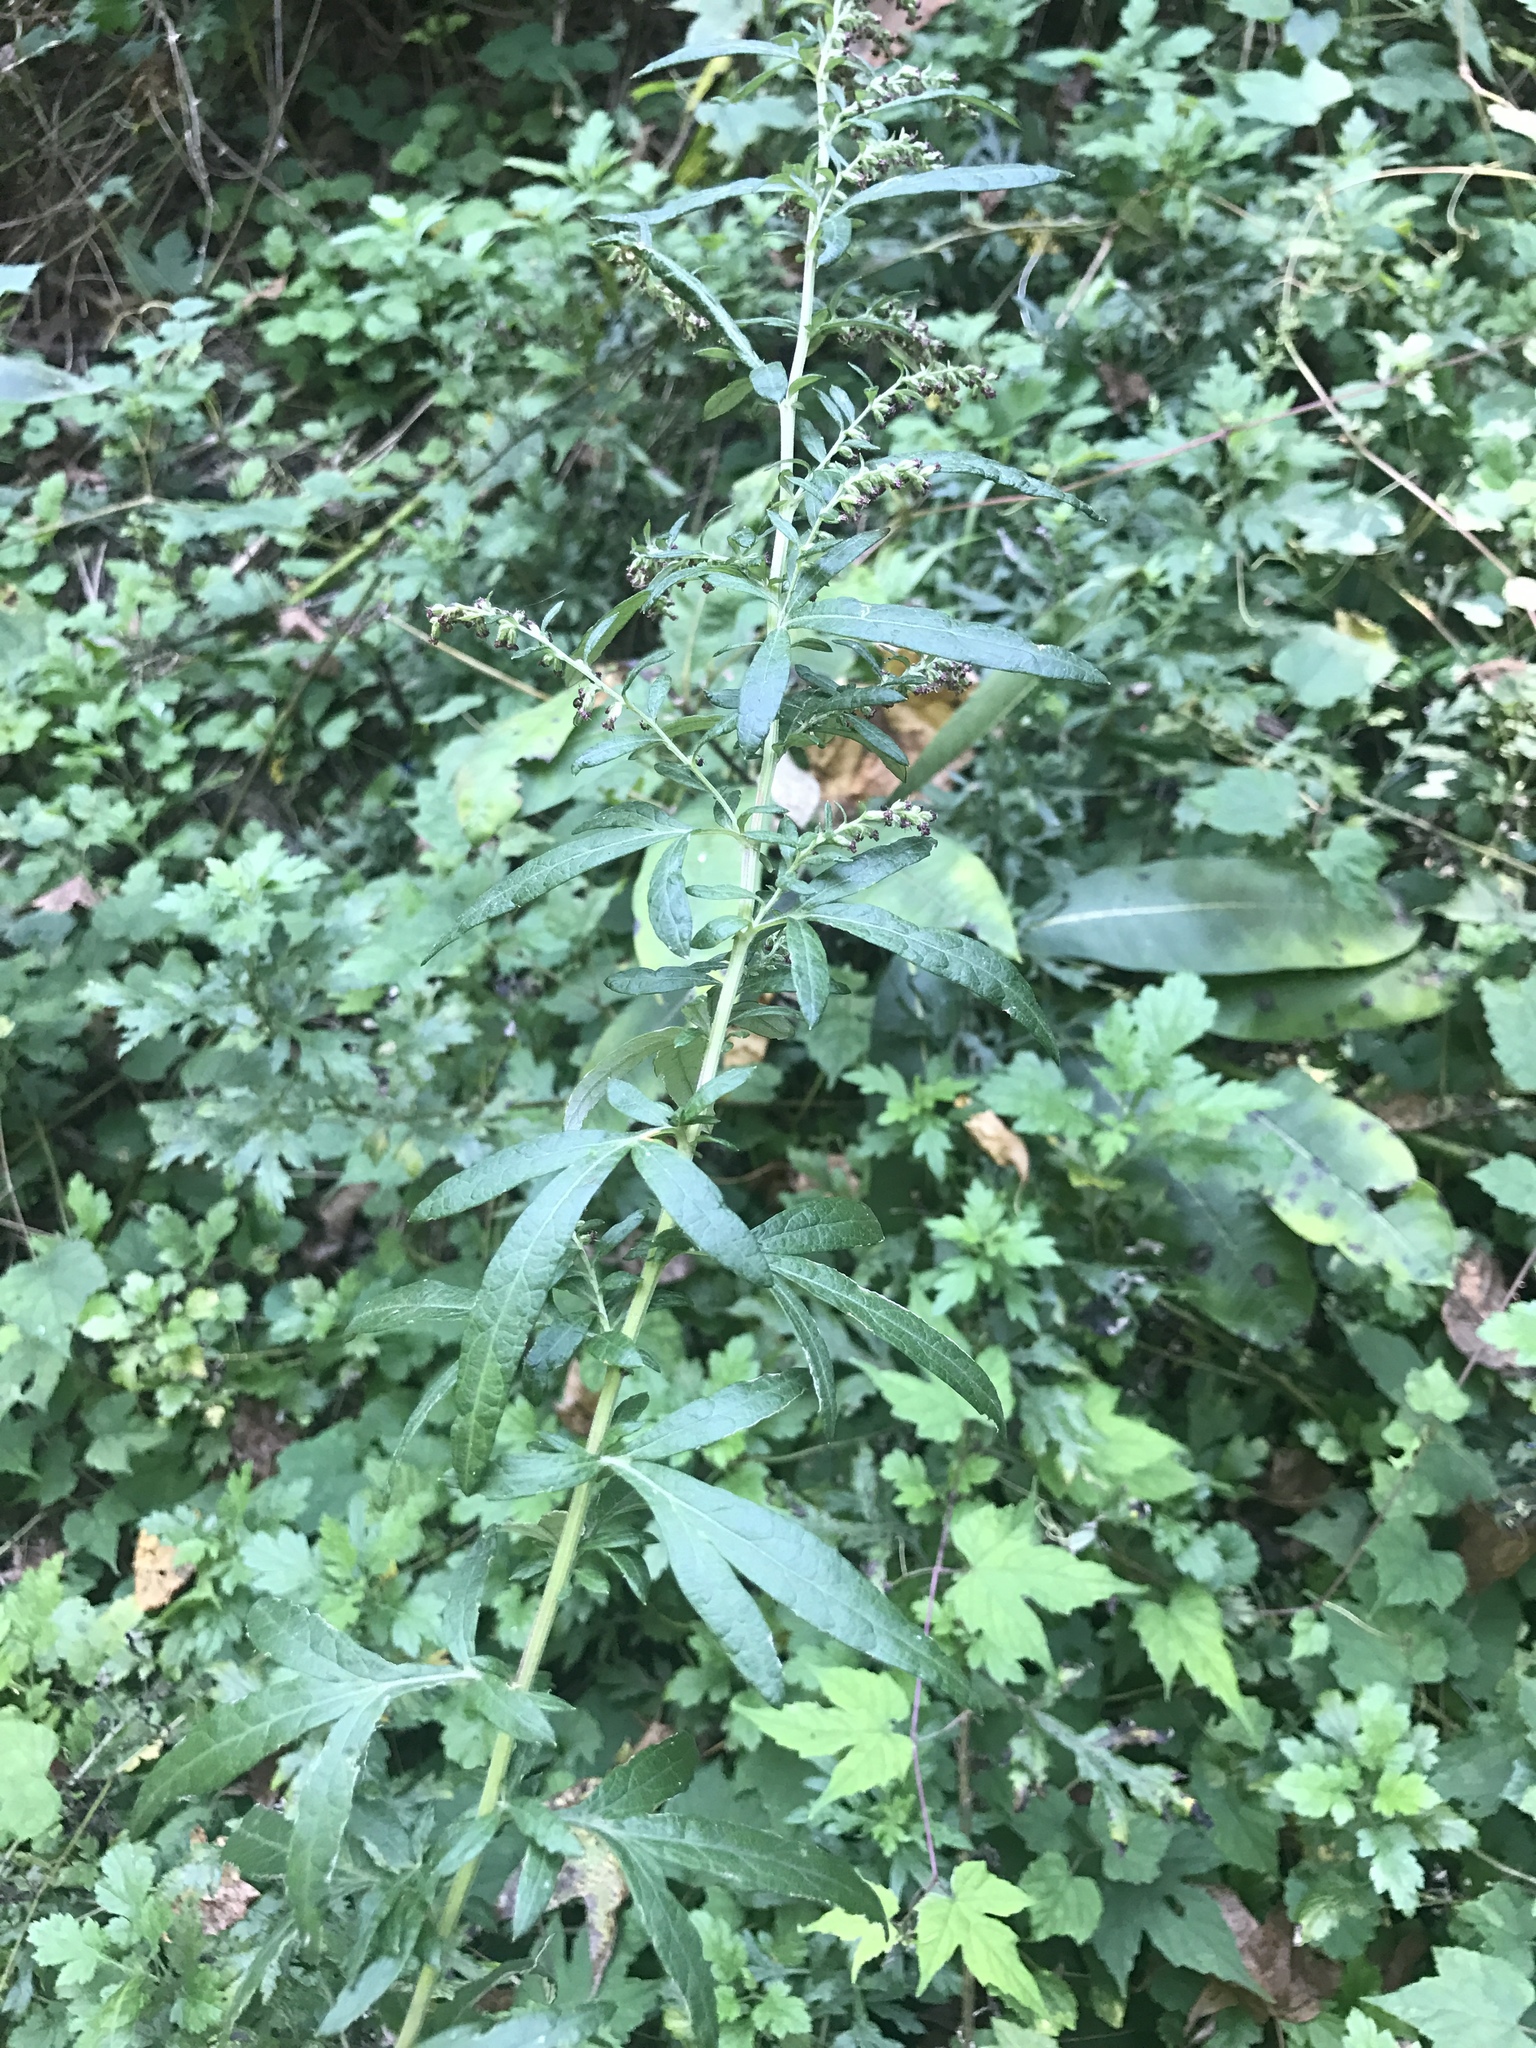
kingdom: Plantae
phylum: Tracheophyta
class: Magnoliopsida
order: Asterales
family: Asteraceae
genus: Artemisia
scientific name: Artemisia vulgaris
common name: Mugwort
